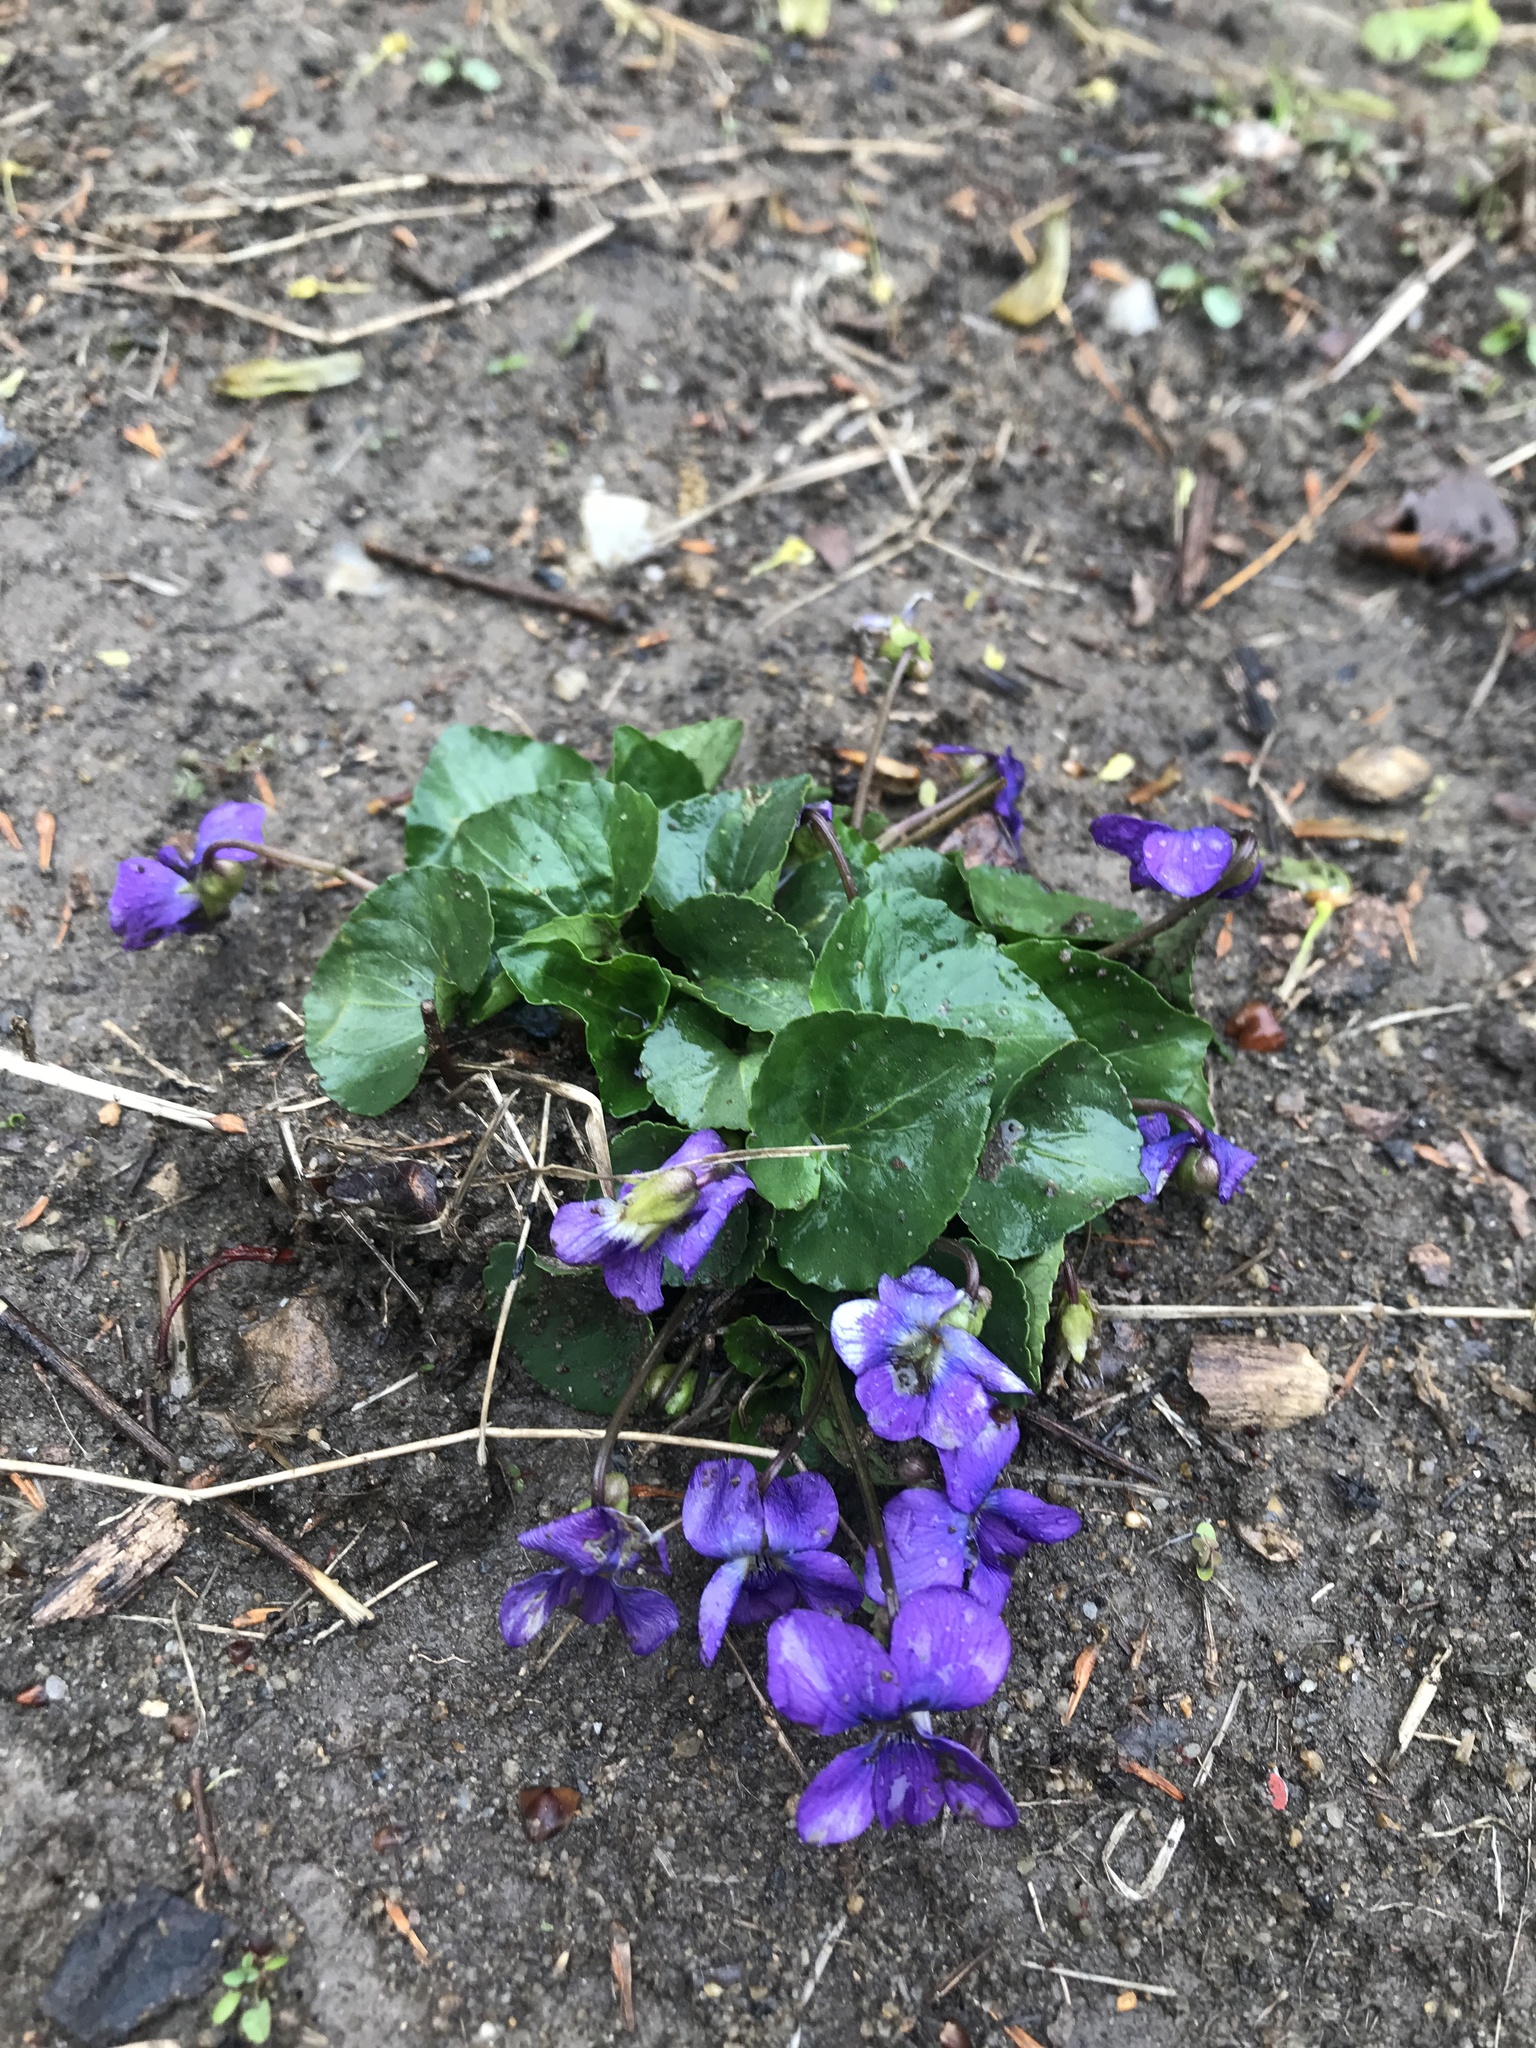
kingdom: Plantae
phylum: Tracheophyta
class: Magnoliopsida
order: Malpighiales
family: Violaceae
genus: Viola
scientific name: Viola sororia
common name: Dooryard violet
